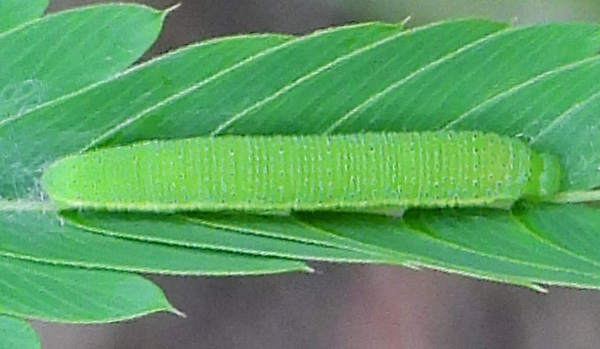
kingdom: Animalia
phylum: Arthropoda
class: Insecta
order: Lepidoptera
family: Pieridae
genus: Phoebis
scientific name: Phoebis sennae
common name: Cloudless sulphur
